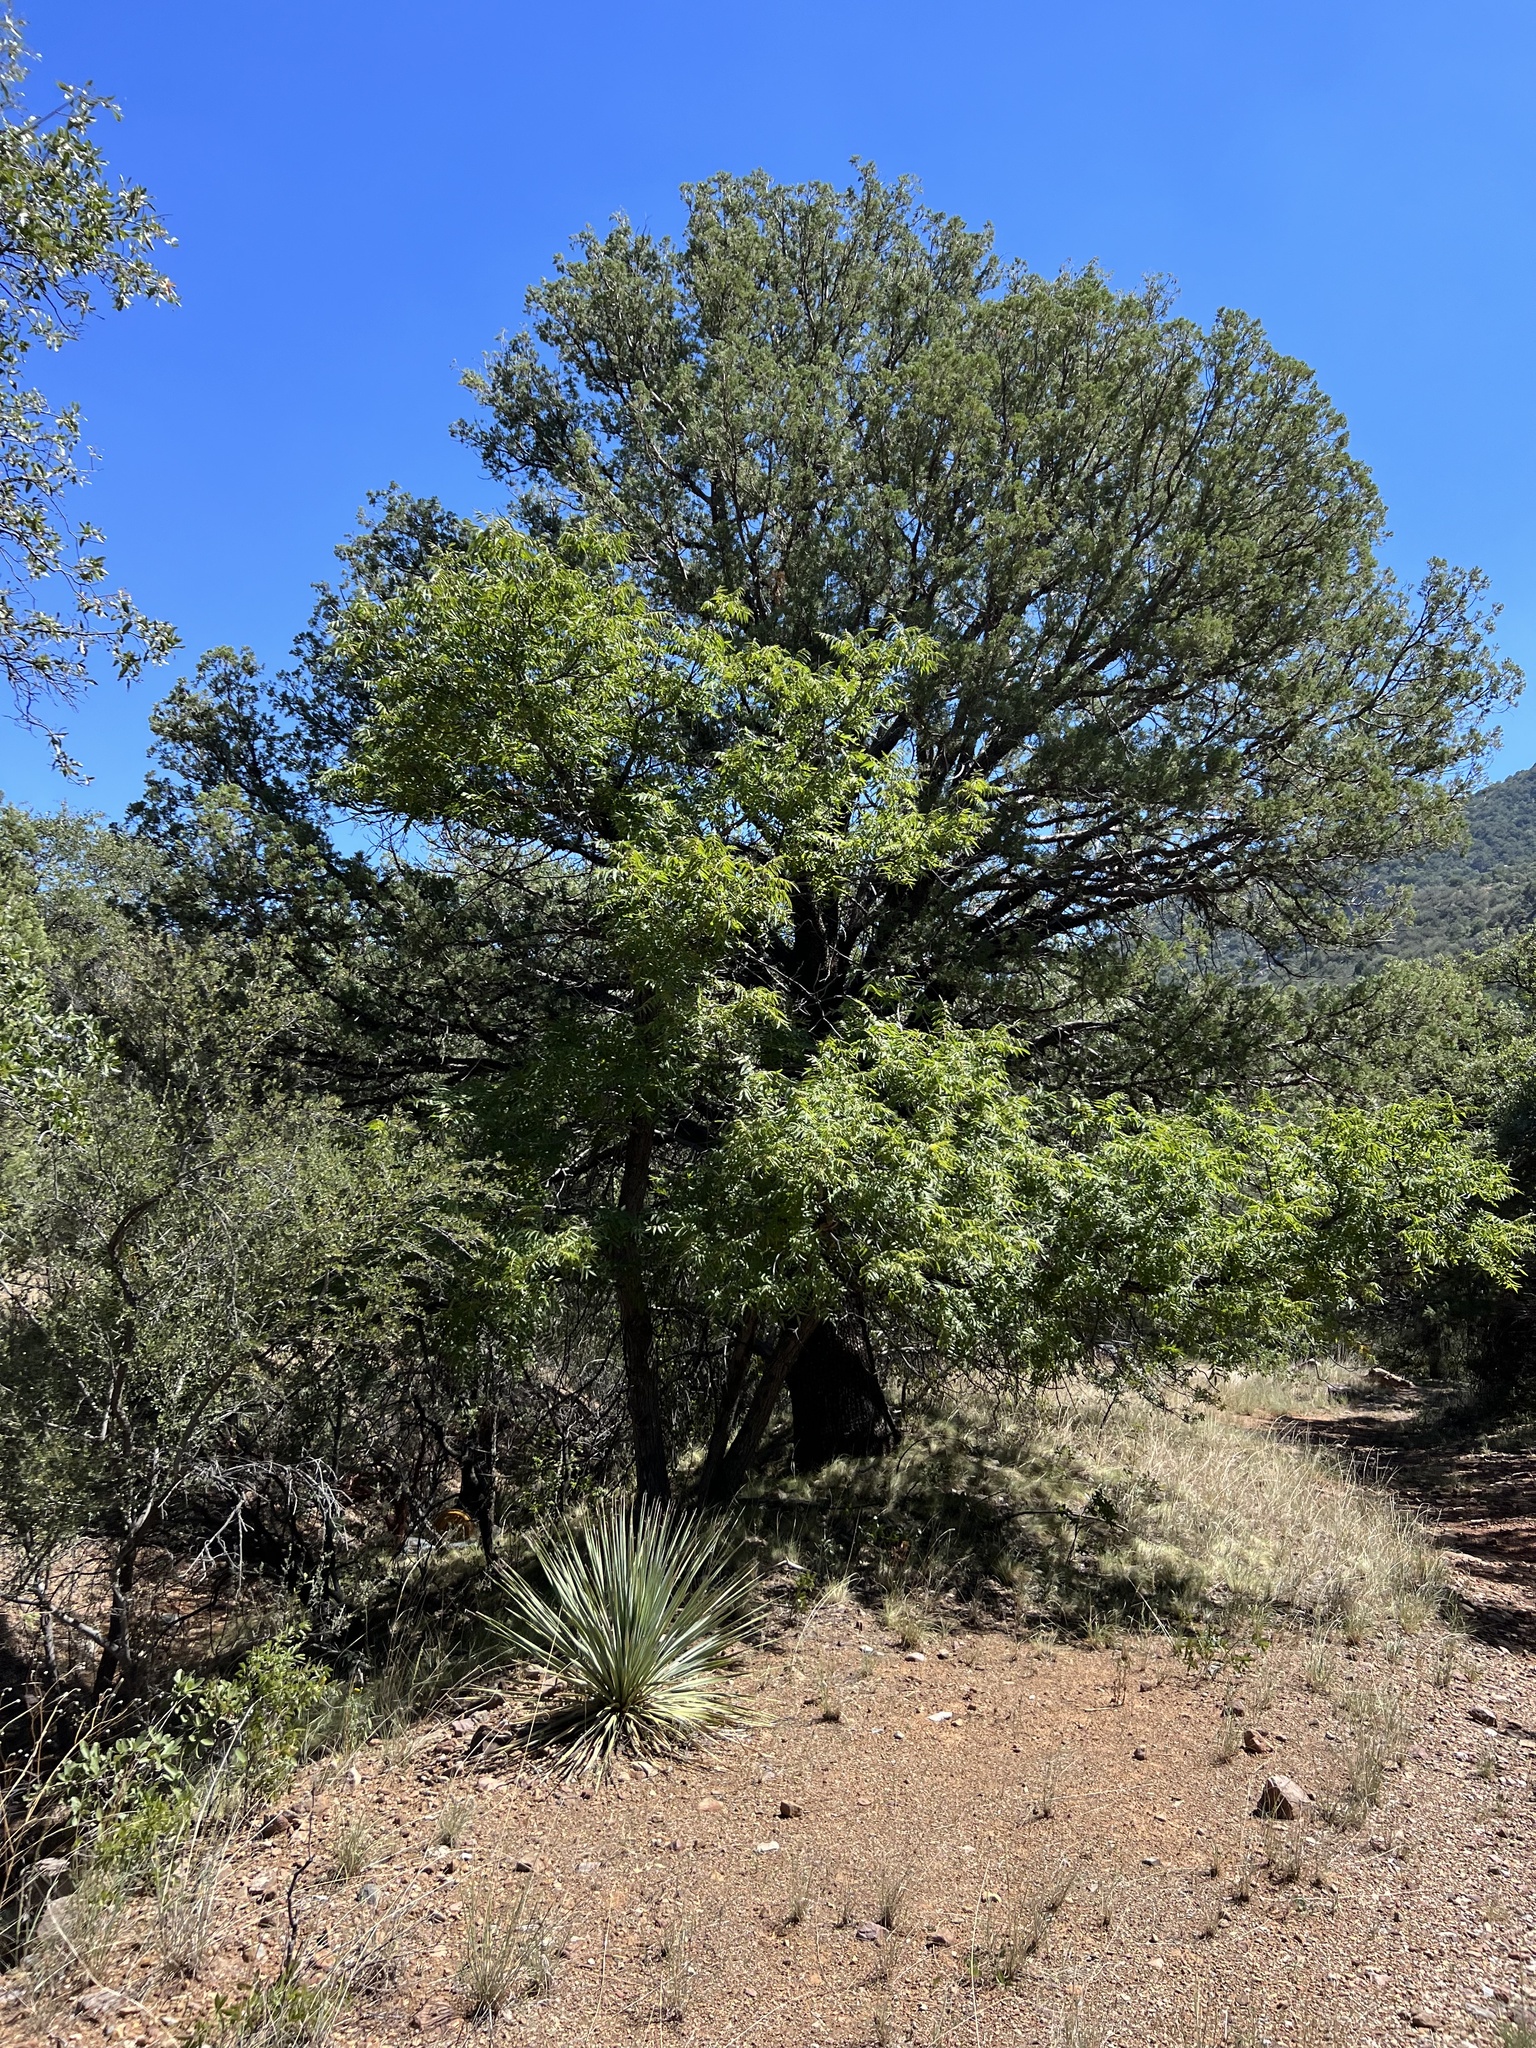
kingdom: Plantae
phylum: Tracheophyta
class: Magnoliopsida
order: Fagales
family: Juglandaceae
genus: Juglans
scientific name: Juglans major
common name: Arizona walnut
